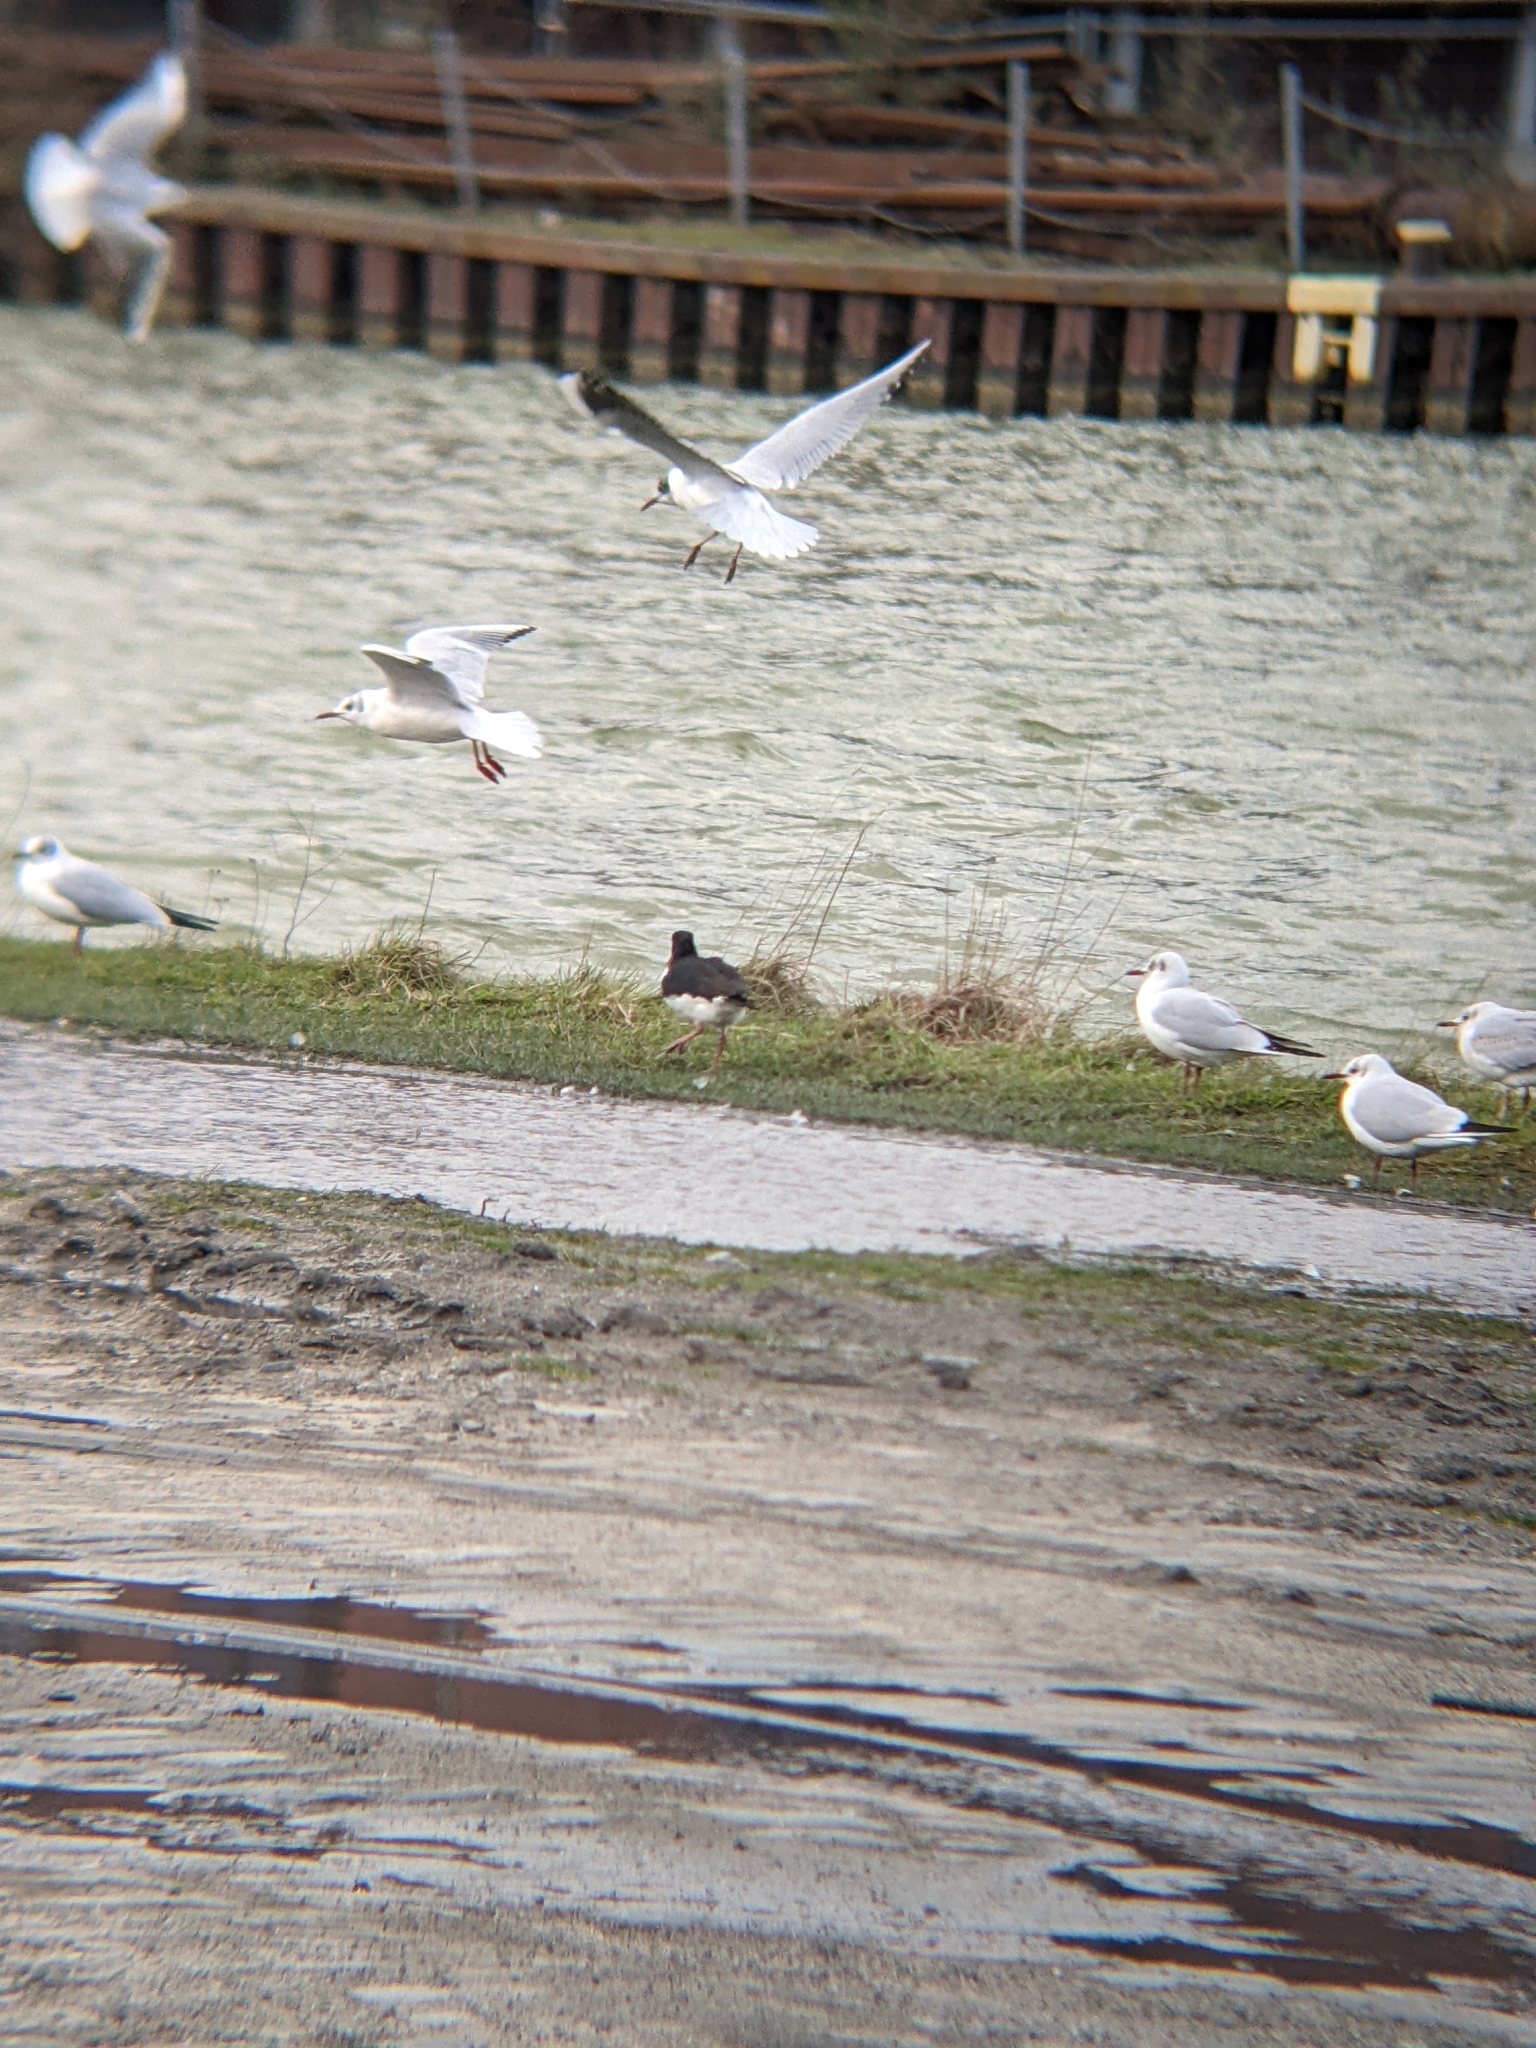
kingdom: Animalia
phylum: Chordata
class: Aves
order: Charadriiformes
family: Laridae
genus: Chroicocephalus
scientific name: Chroicocephalus ridibundus
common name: Black-headed gull
